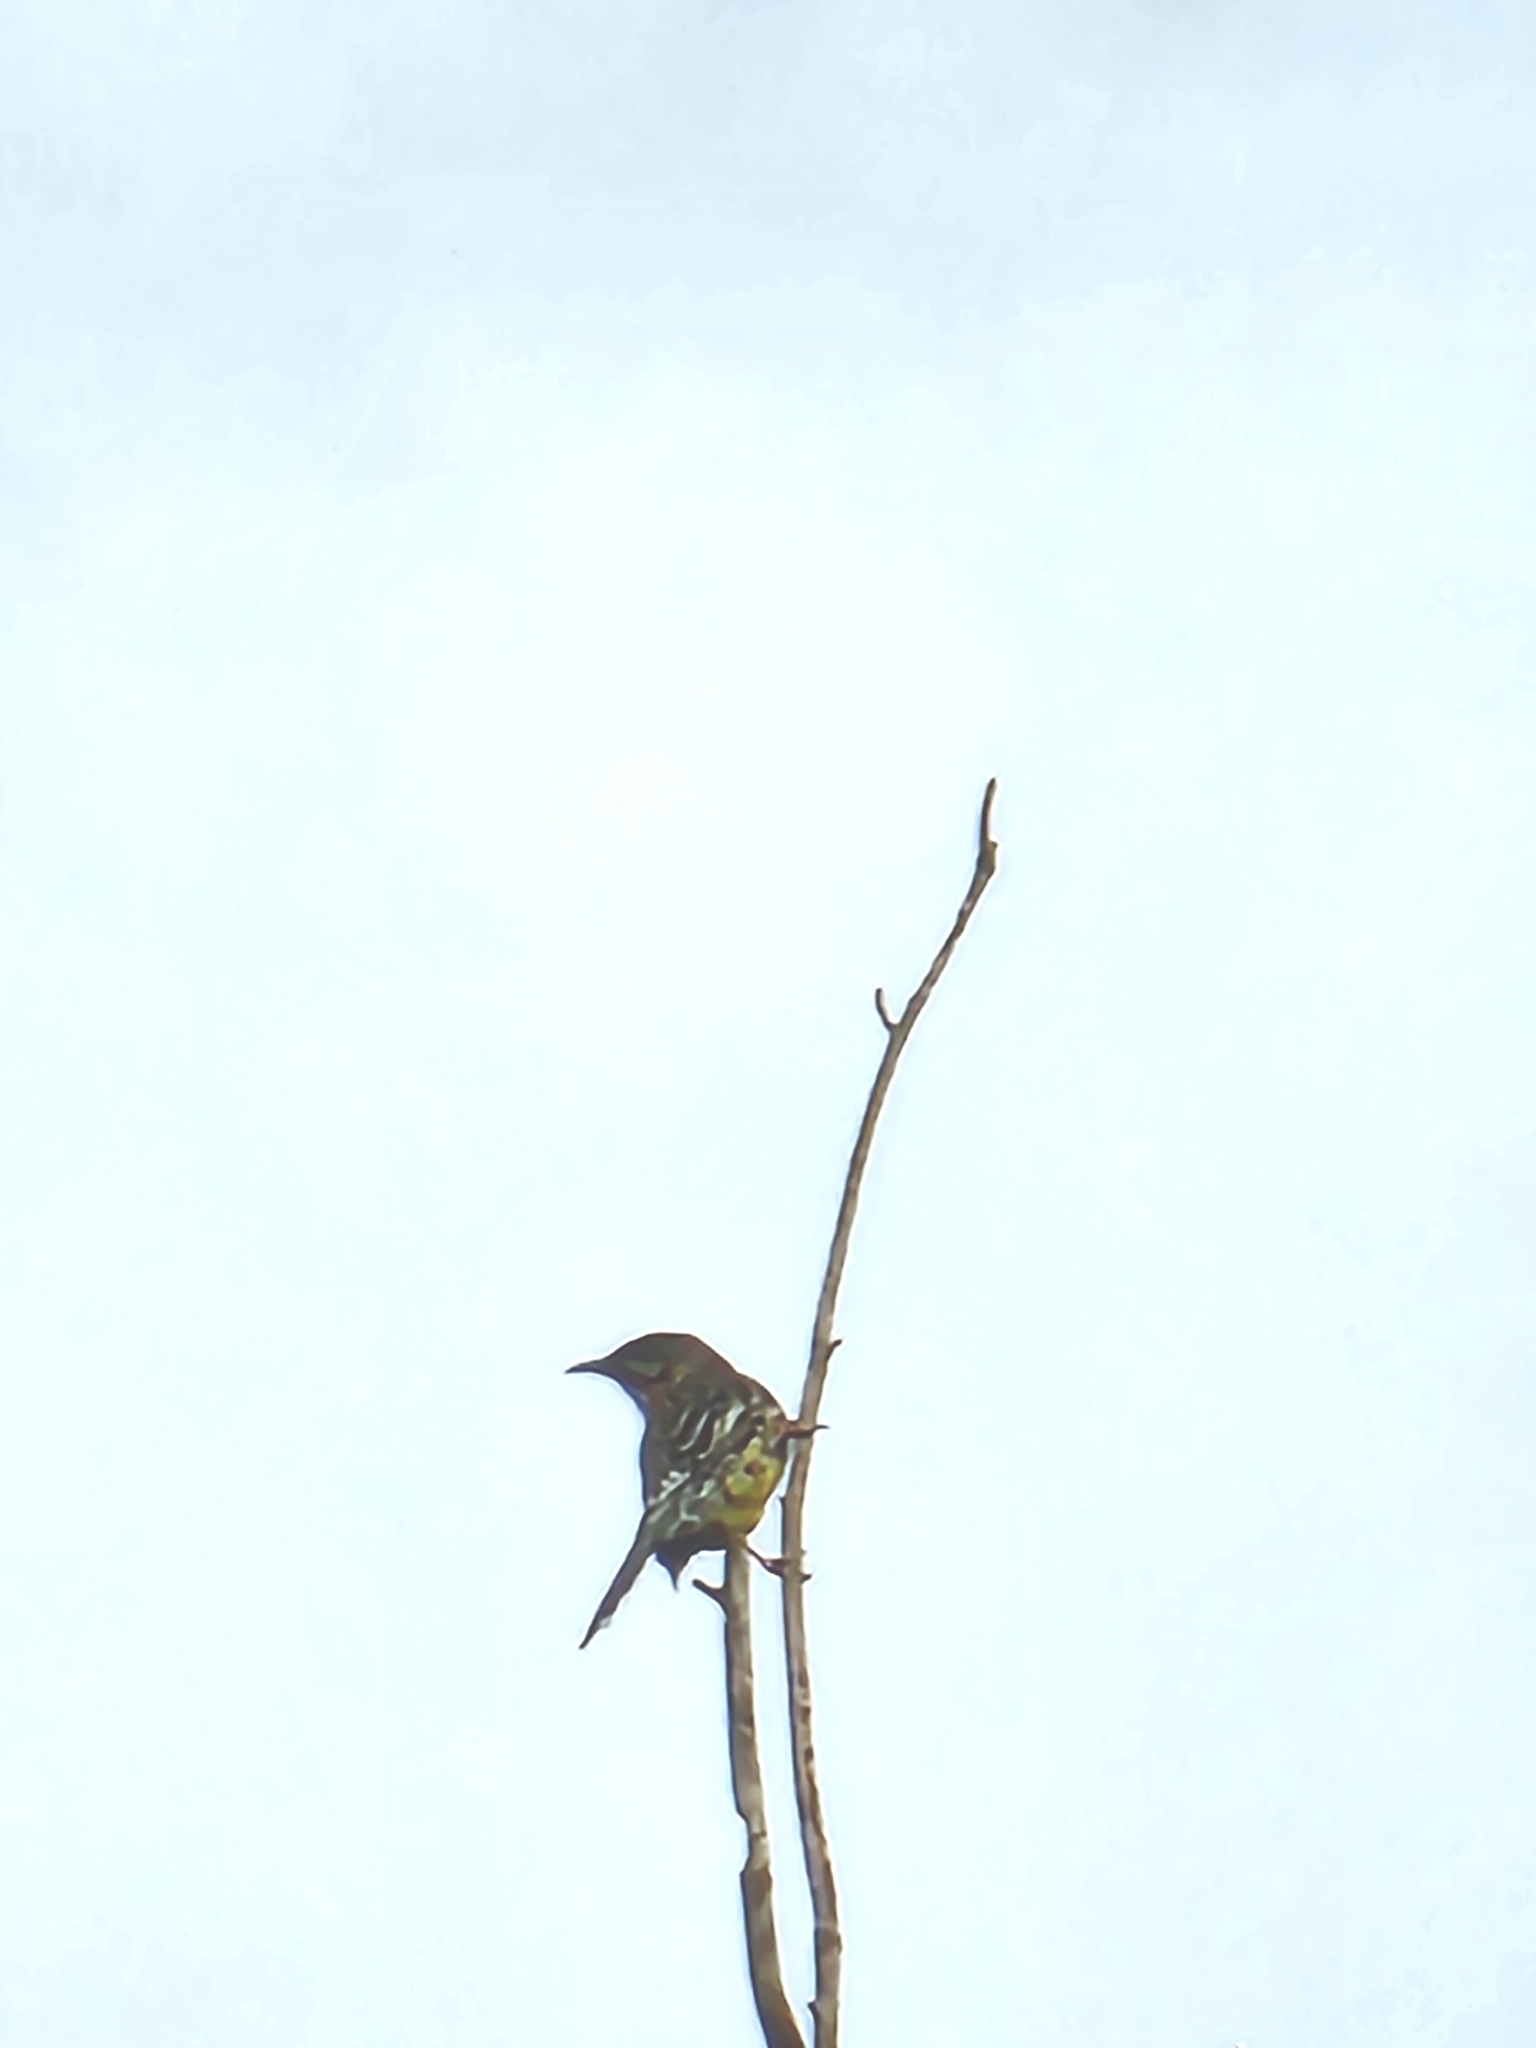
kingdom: Animalia
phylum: Chordata
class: Aves
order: Passeriformes
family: Meliphagidae
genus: Anthochaera
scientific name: Anthochaera carunculata
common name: Red wattlebird
